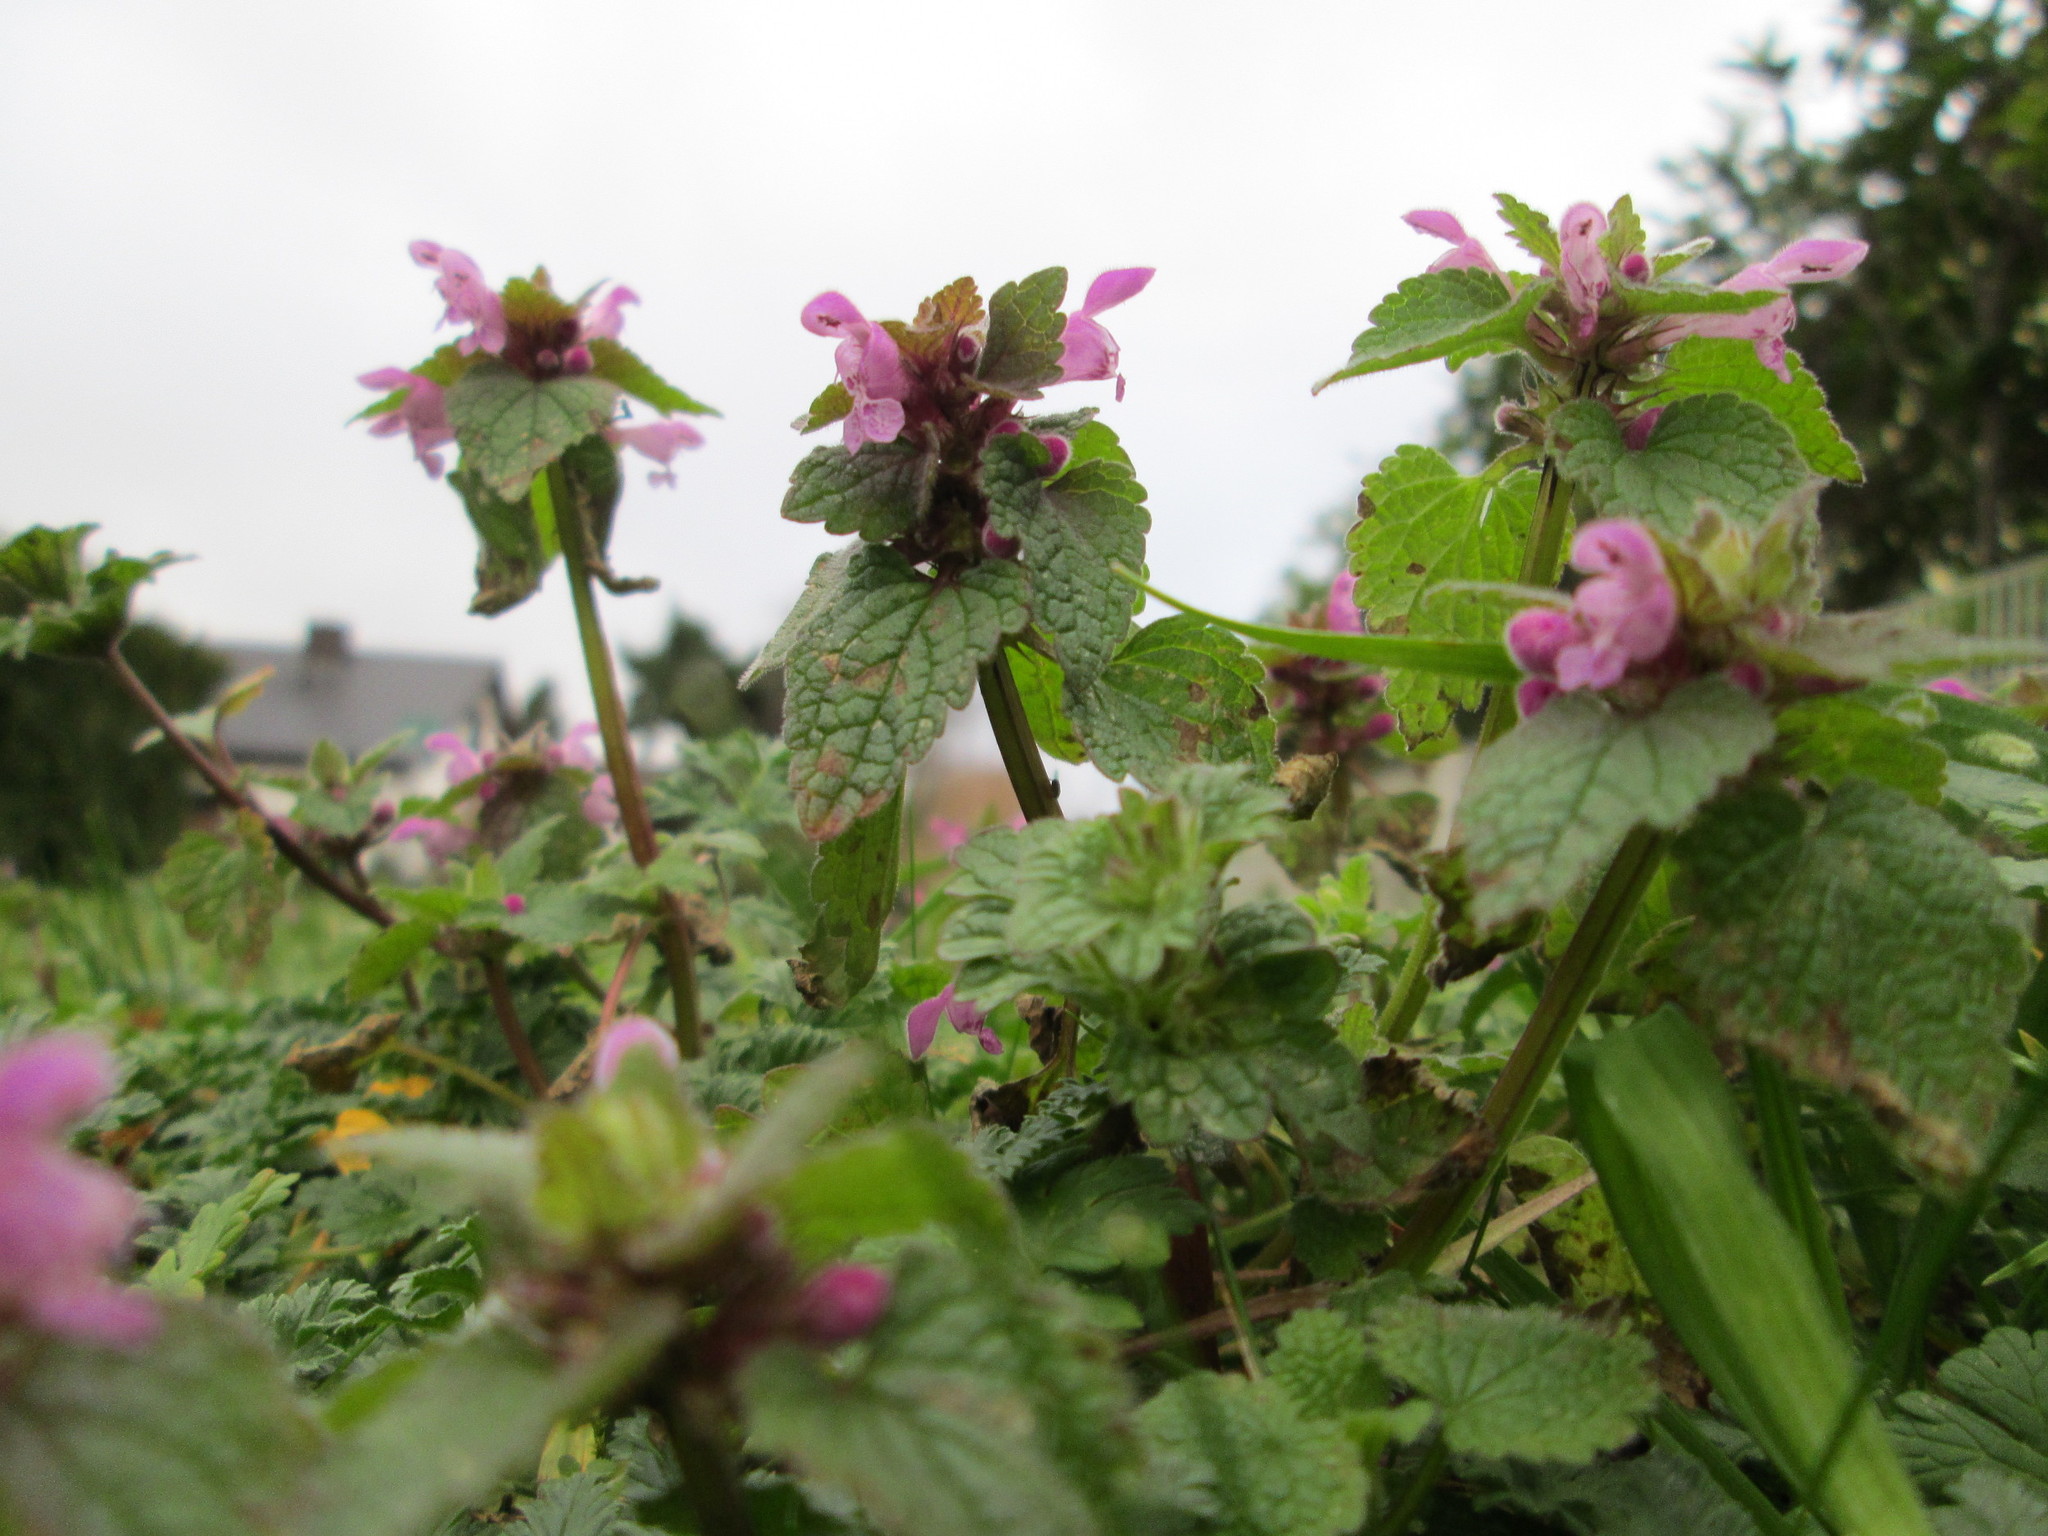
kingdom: Plantae
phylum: Tracheophyta
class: Magnoliopsida
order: Lamiales
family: Lamiaceae
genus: Lamium
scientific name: Lamium purpureum
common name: Red dead-nettle
